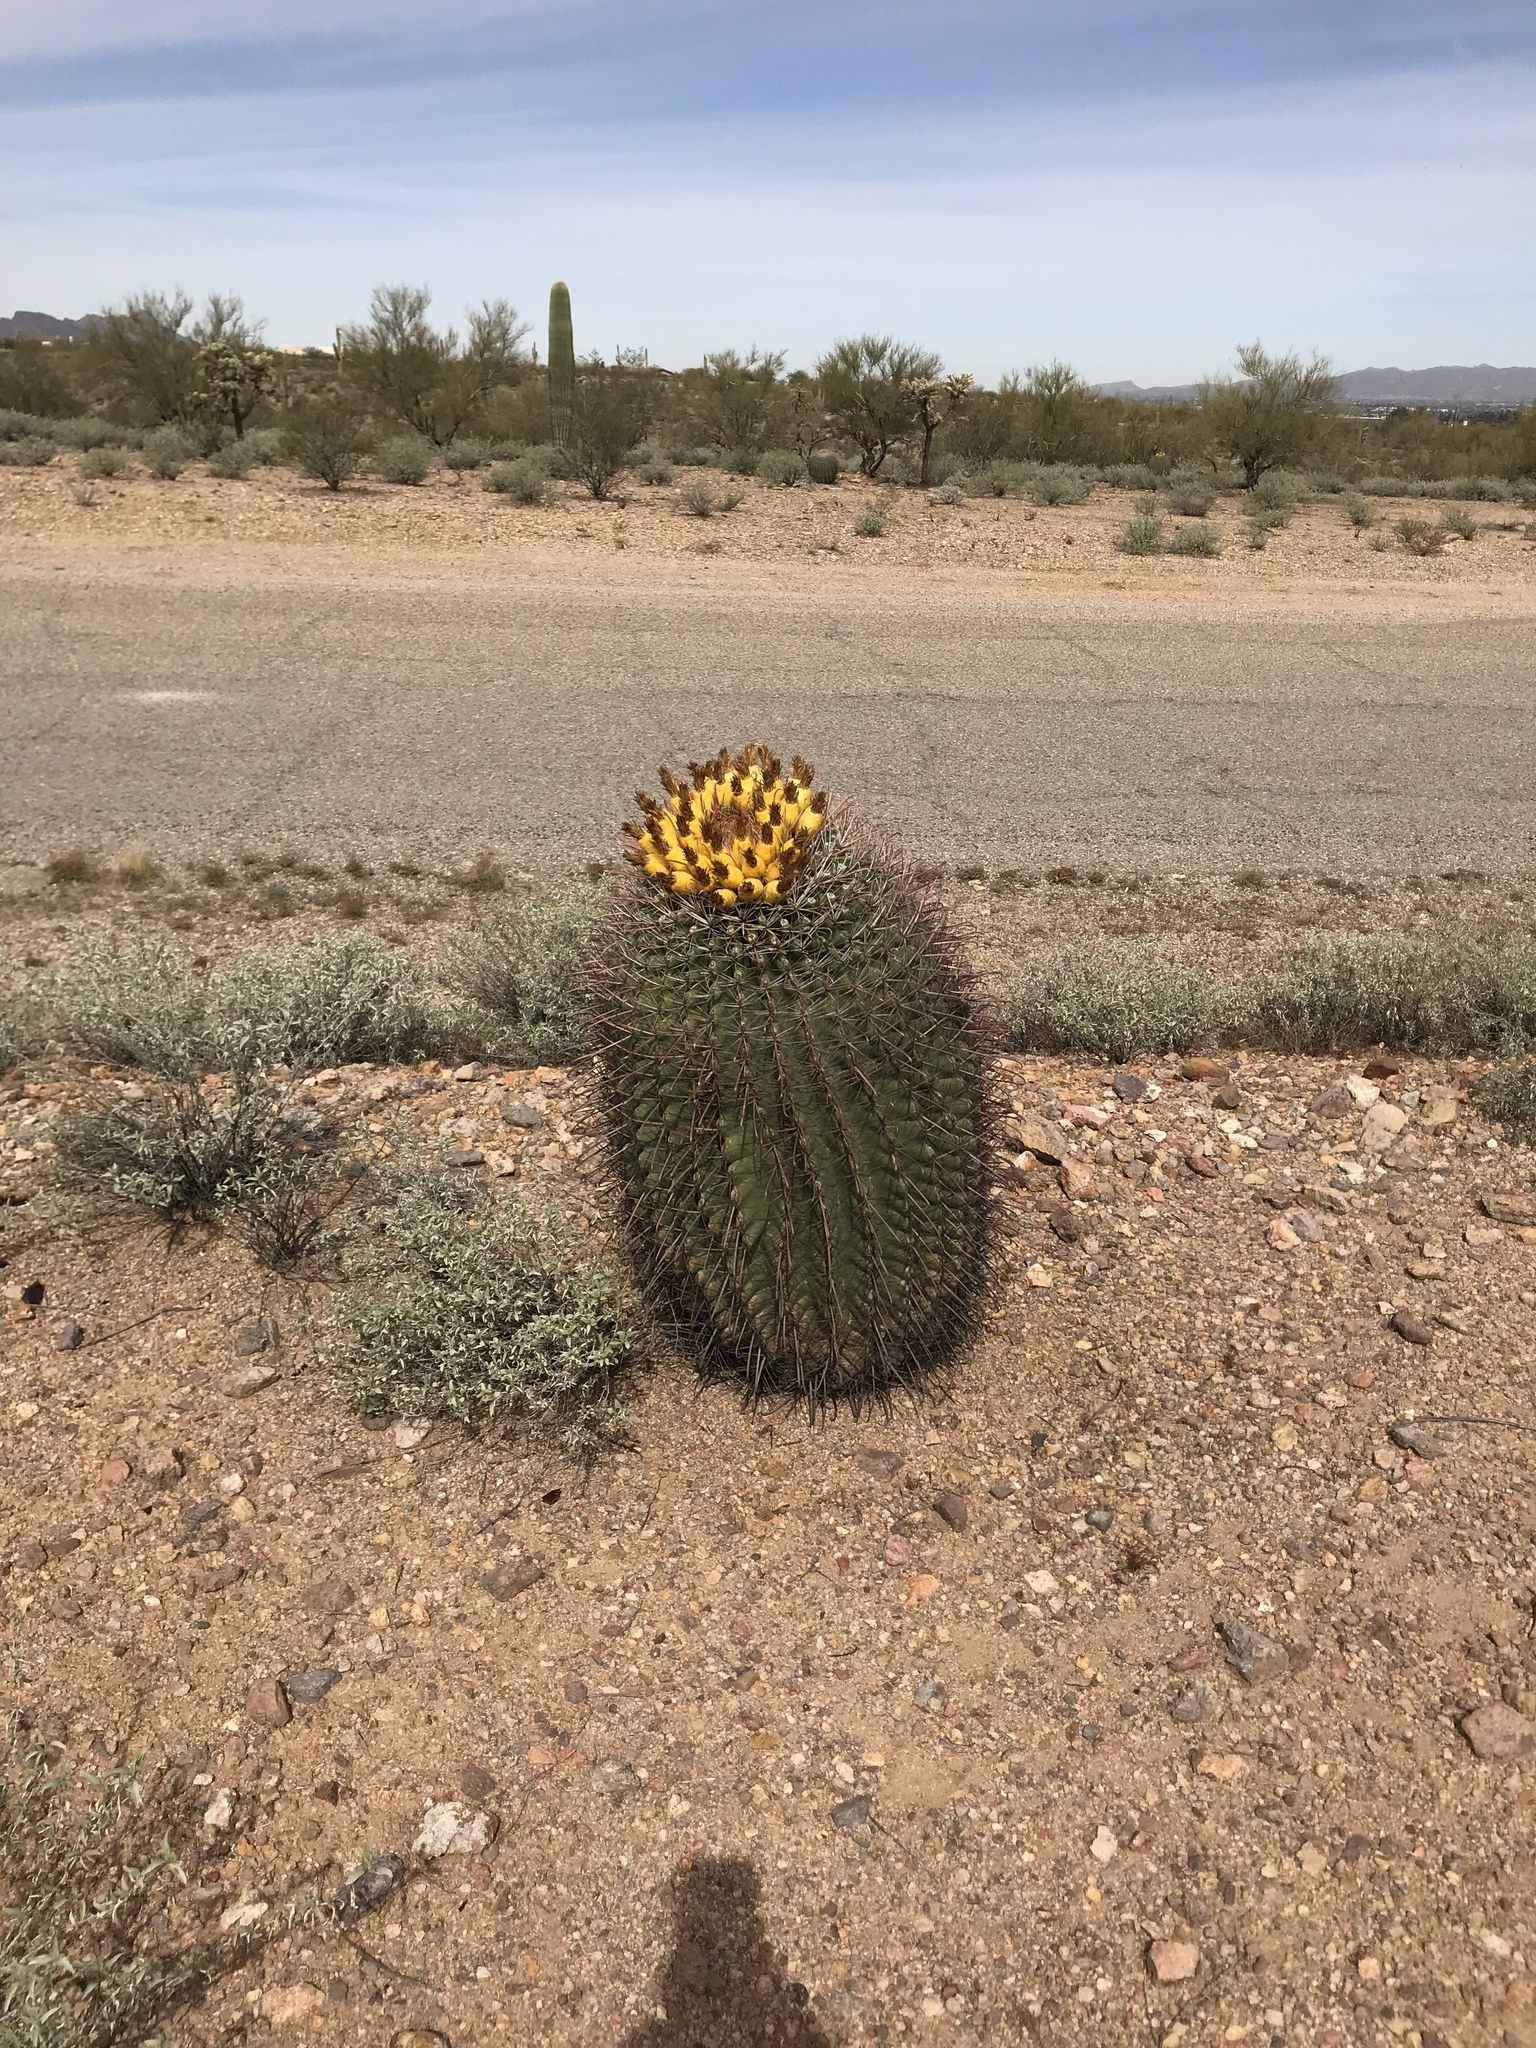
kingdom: Plantae
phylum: Tracheophyta
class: Magnoliopsida
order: Caryophyllales
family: Cactaceae
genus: Ferocactus
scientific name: Ferocactus wislizeni
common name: Candy barrel cactus
